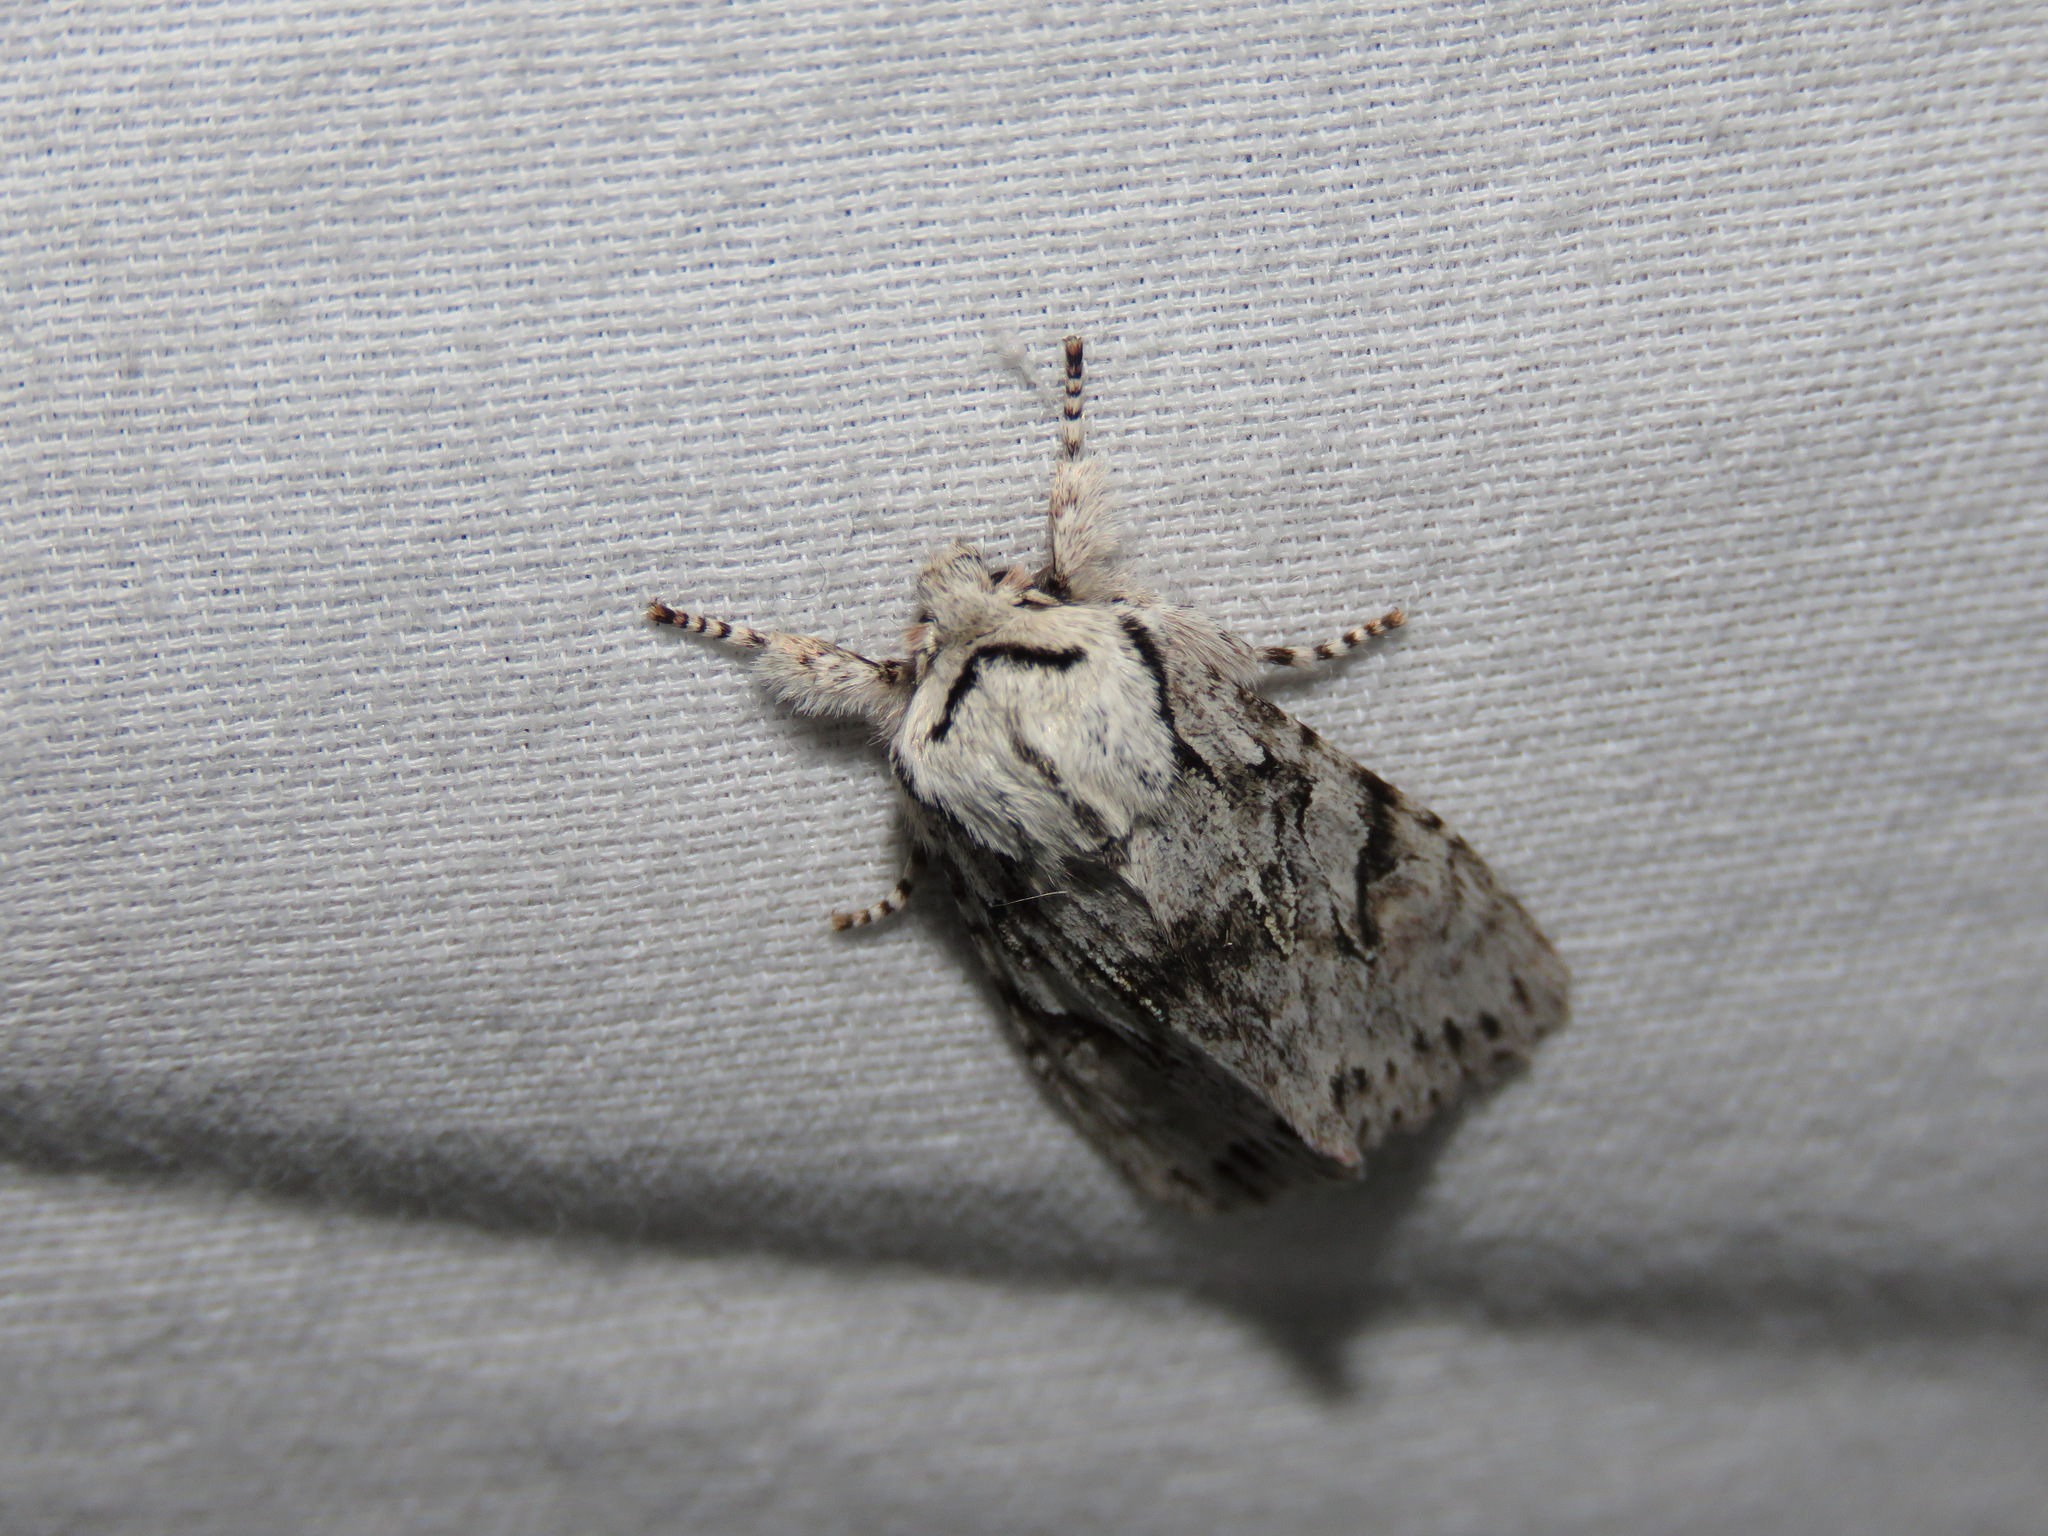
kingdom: Animalia
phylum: Arthropoda
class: Insecta
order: Lepidoptera
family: Noctuidae
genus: Egira
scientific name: Egira simplex
